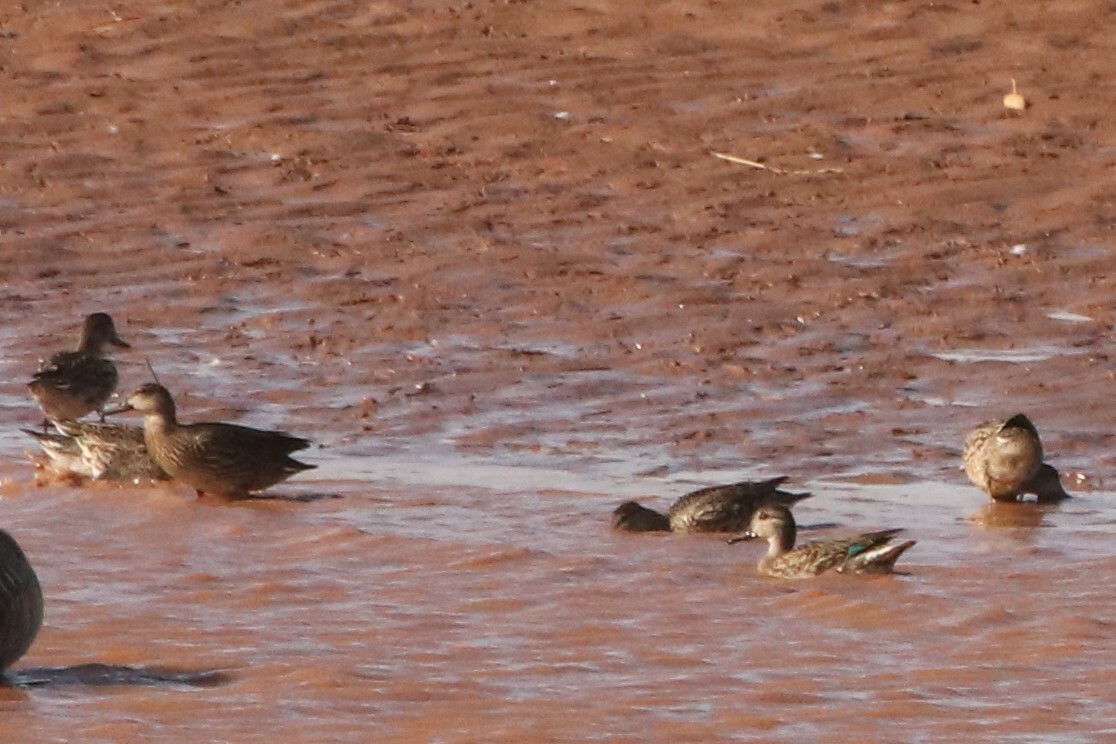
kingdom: Animalia
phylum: Chordata
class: Aves
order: Anseriformes
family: Anatidae
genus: Anas
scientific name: Anas crecca
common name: Eurasian teal
